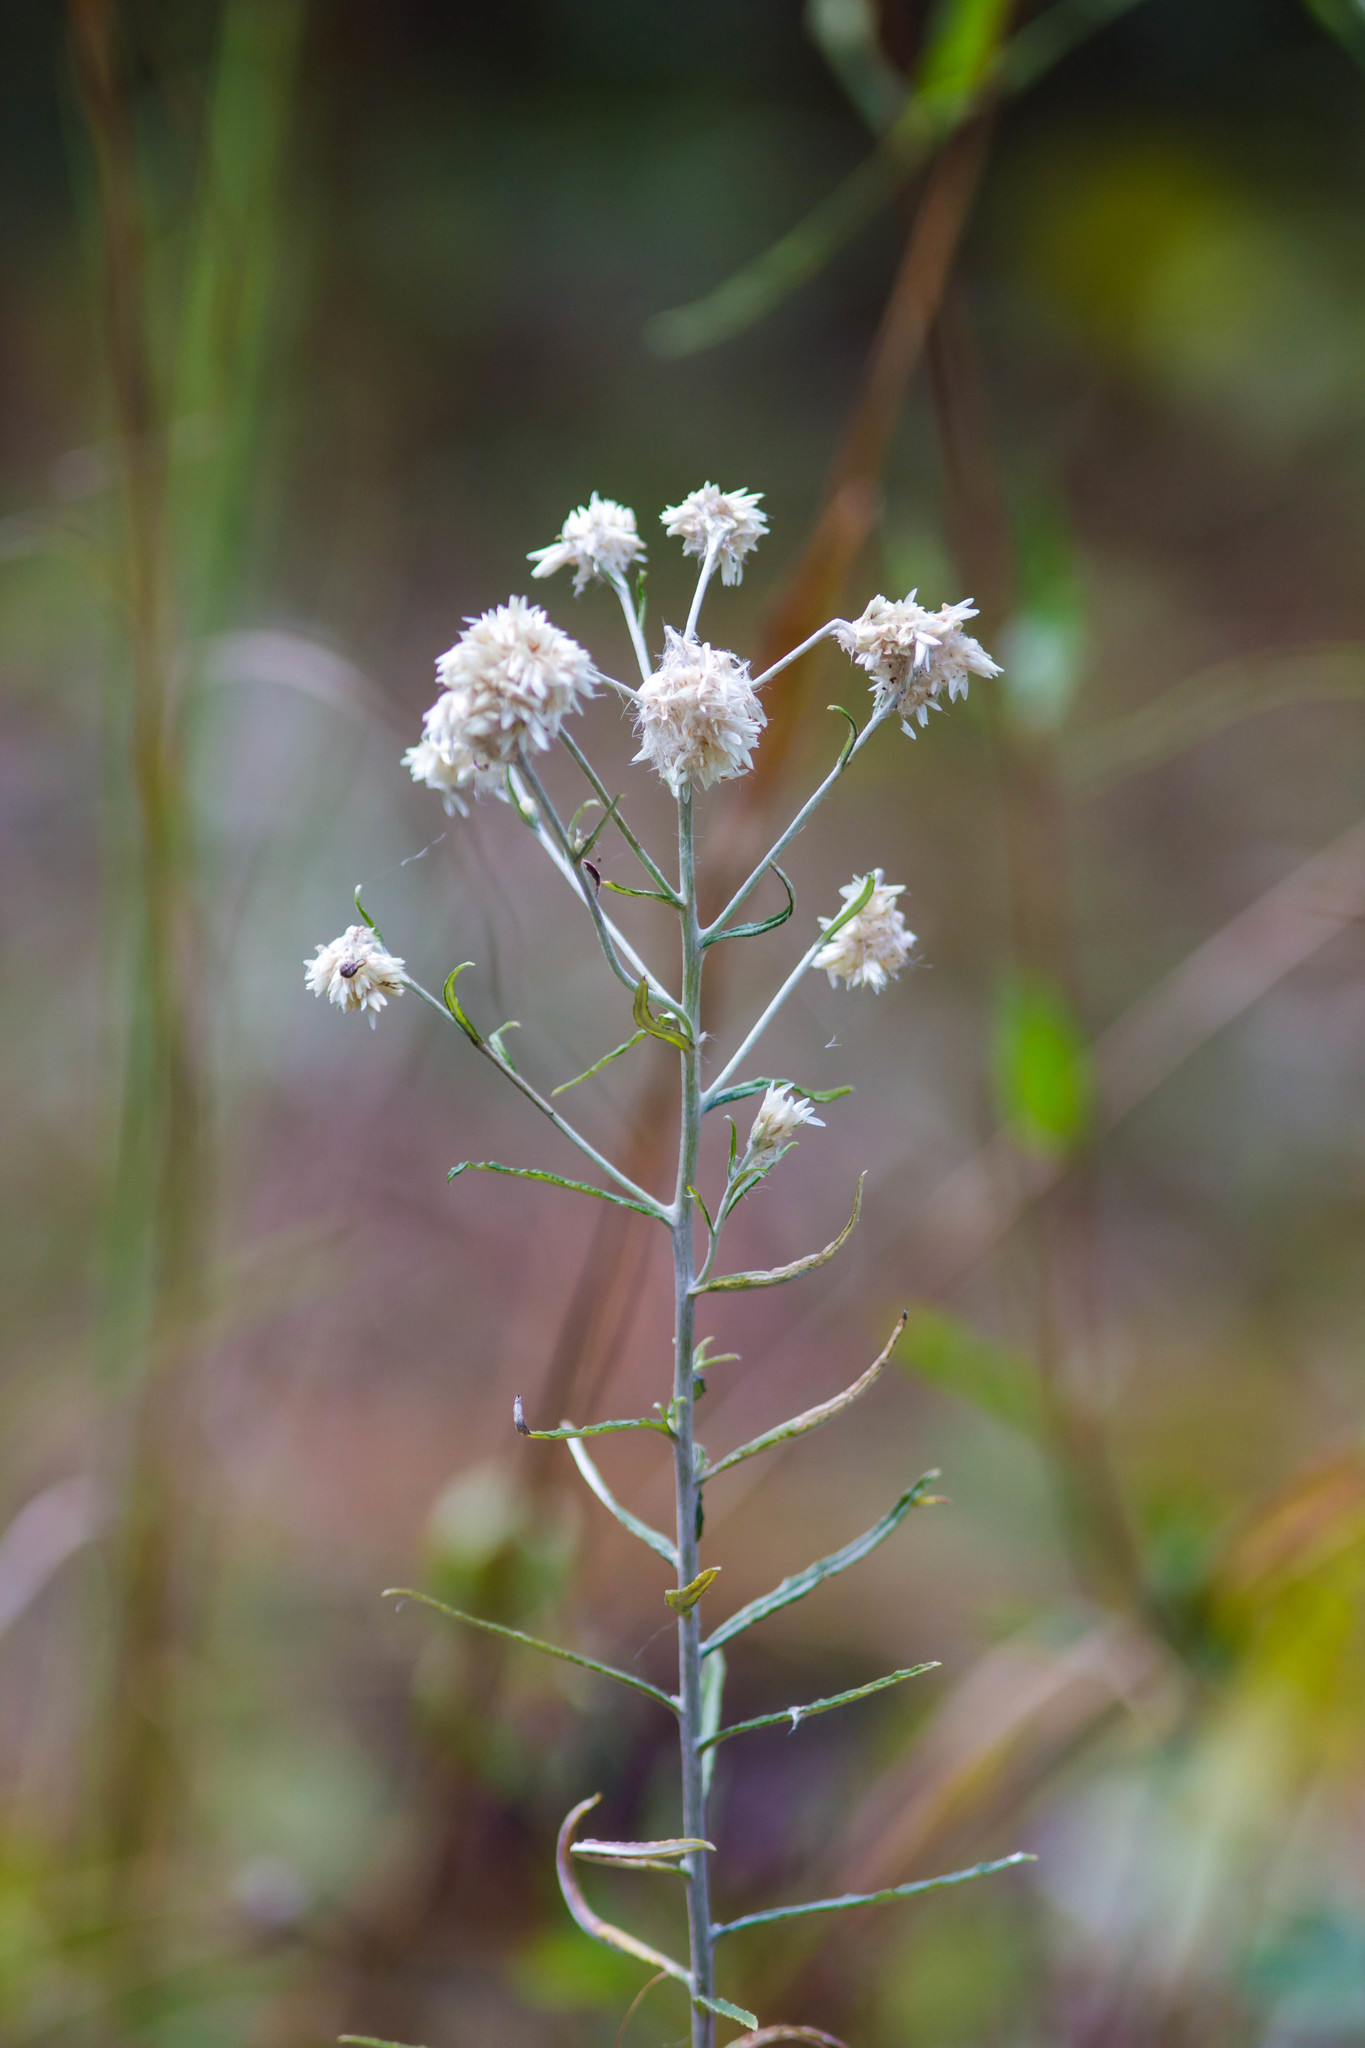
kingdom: Plantae
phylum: Tracheophyta
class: Magnoliopsida
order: Asterales
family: Asteraceae
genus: Pseudognaphalium
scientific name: Pseudognaphalium obtusifolium
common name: Eastern rabbit-tobacco
